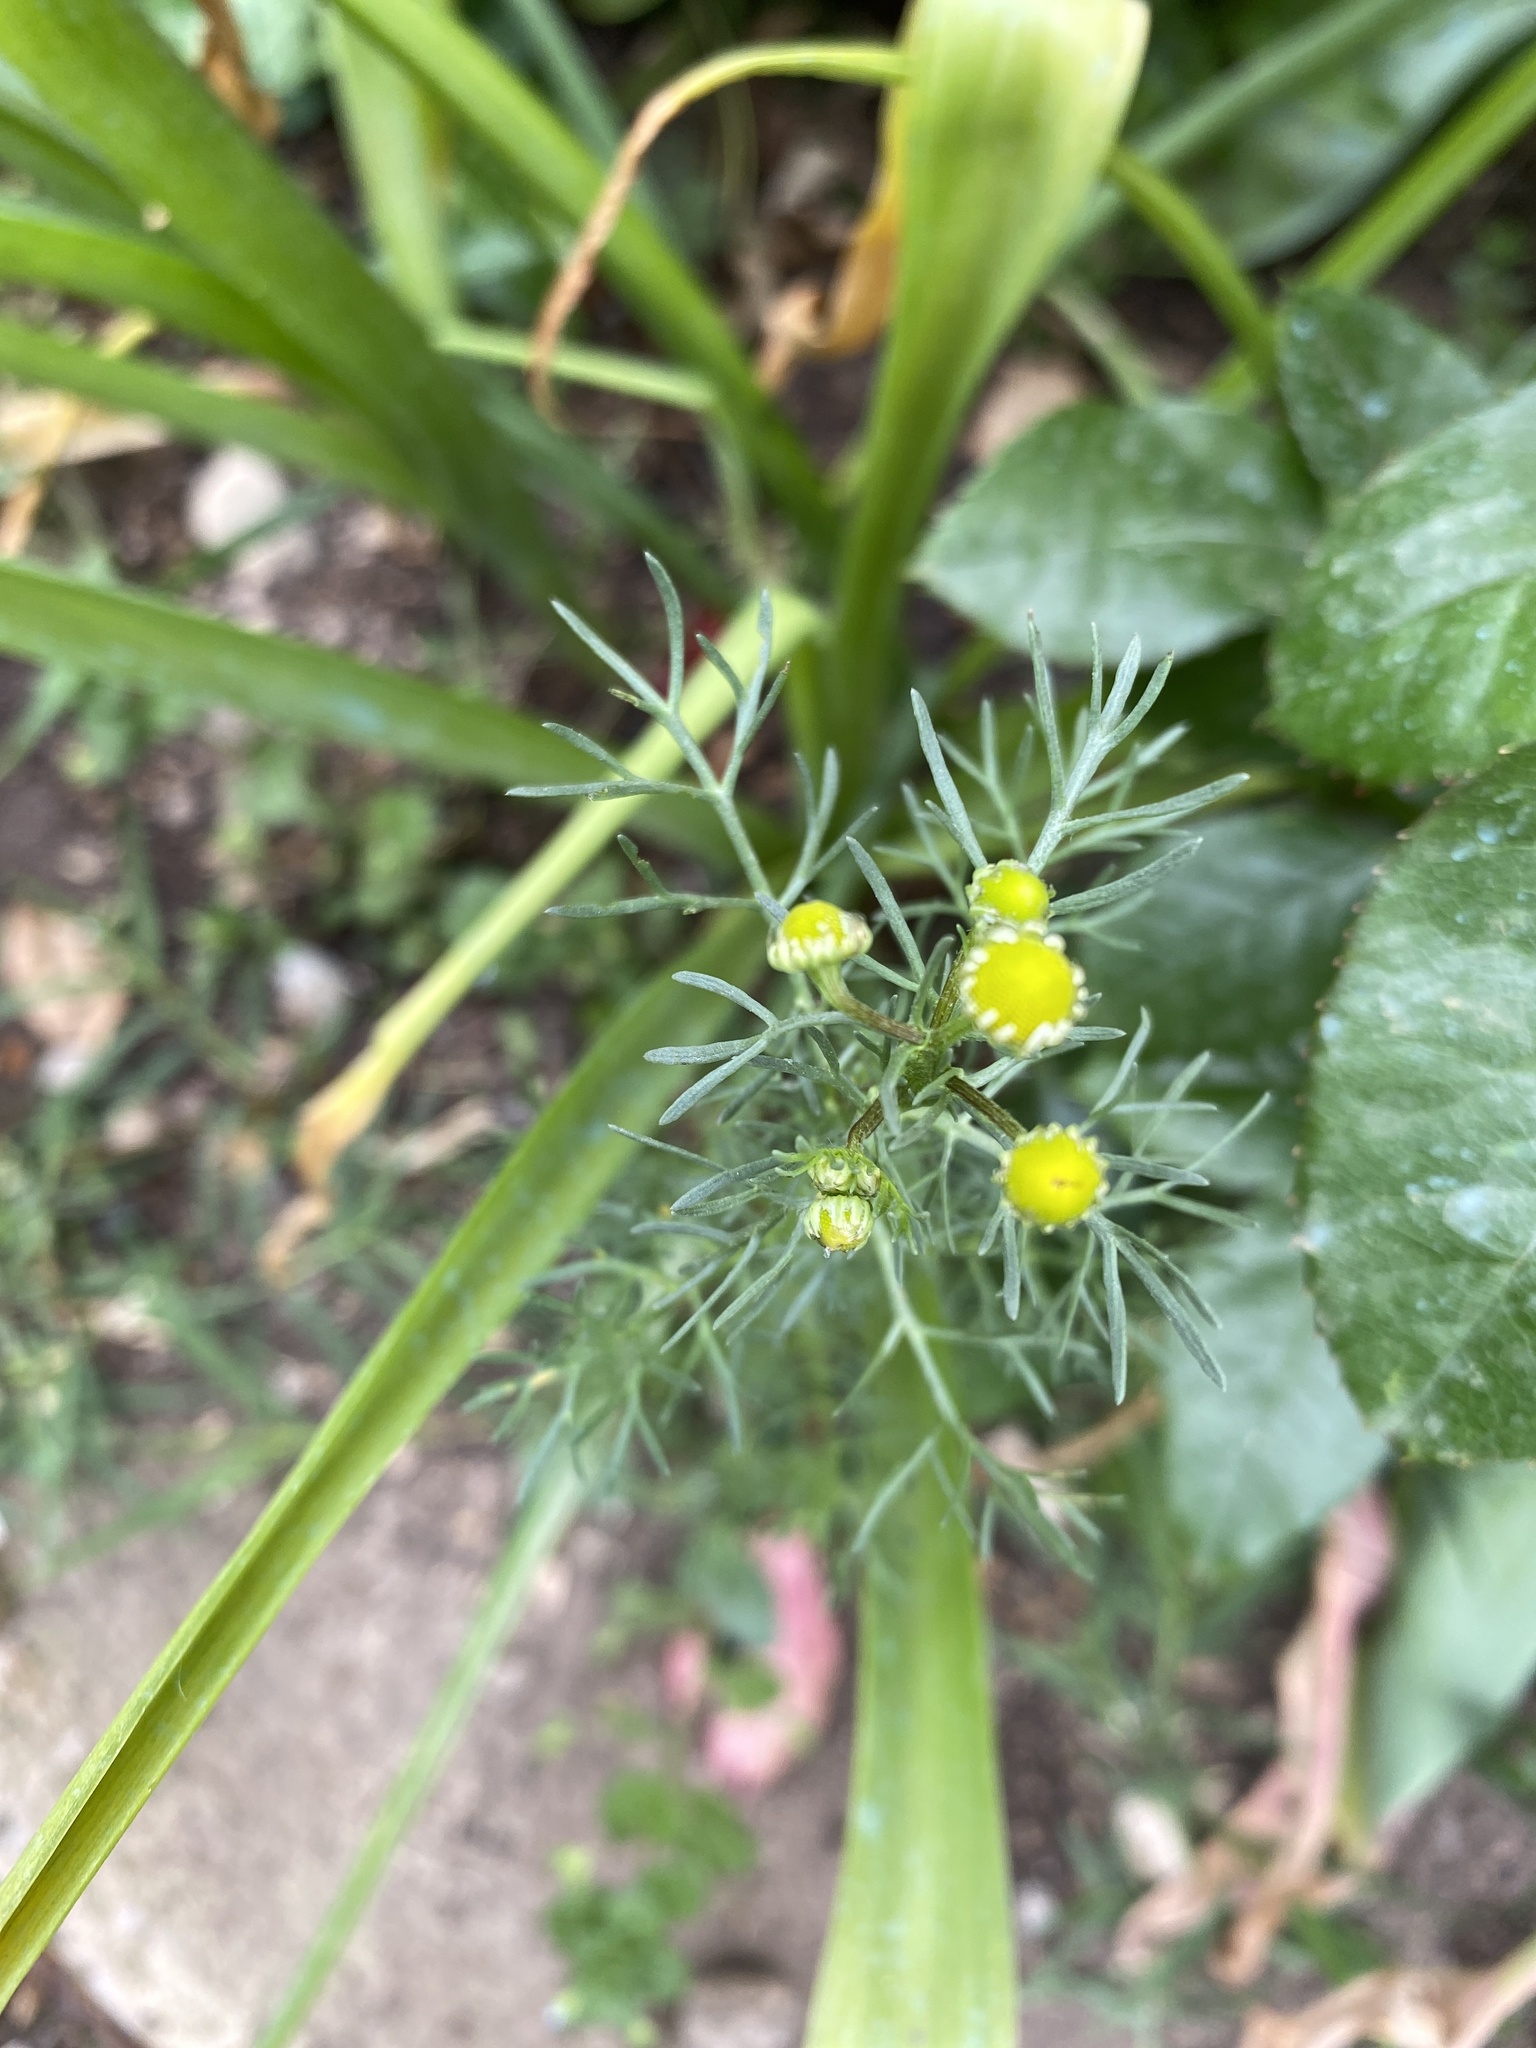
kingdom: Plantae
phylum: Tracheophyta
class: Magnoliopsida
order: Asterales
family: Asteraceae
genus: Matricaria
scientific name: Matricaria discoidea
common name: Disc mayweed
